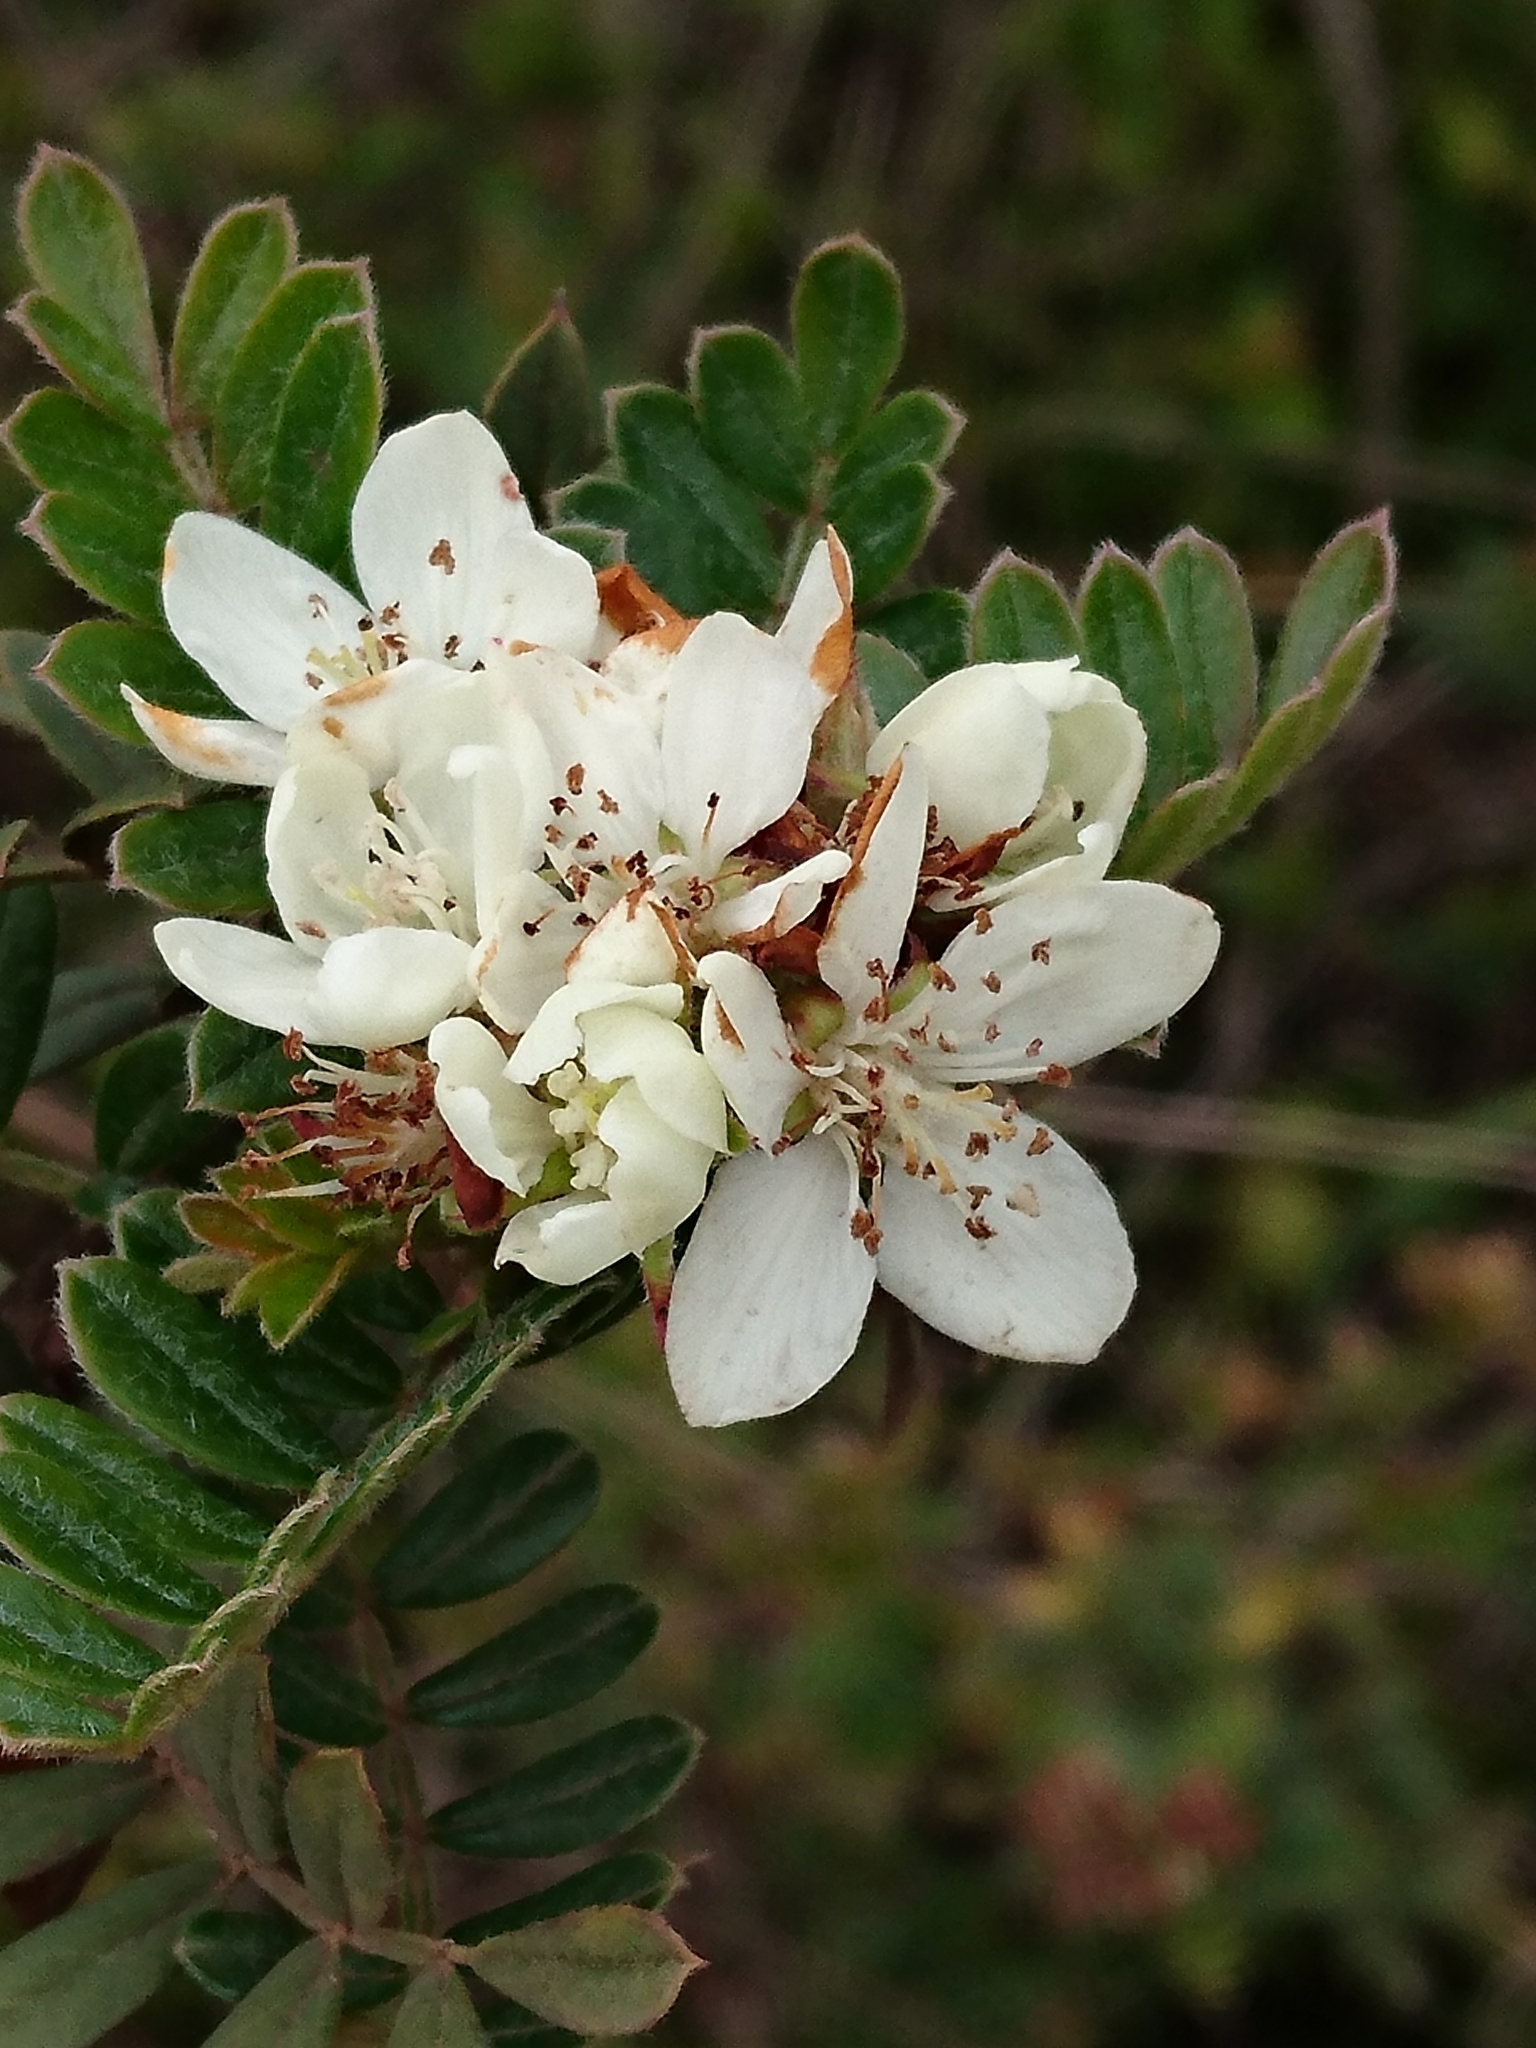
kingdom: Plantae
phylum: Tracheophyta
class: Magnoliopsida
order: Rosales
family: Rosaceae
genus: Osteomeles
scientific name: Osteomeles anthyllidifolia
